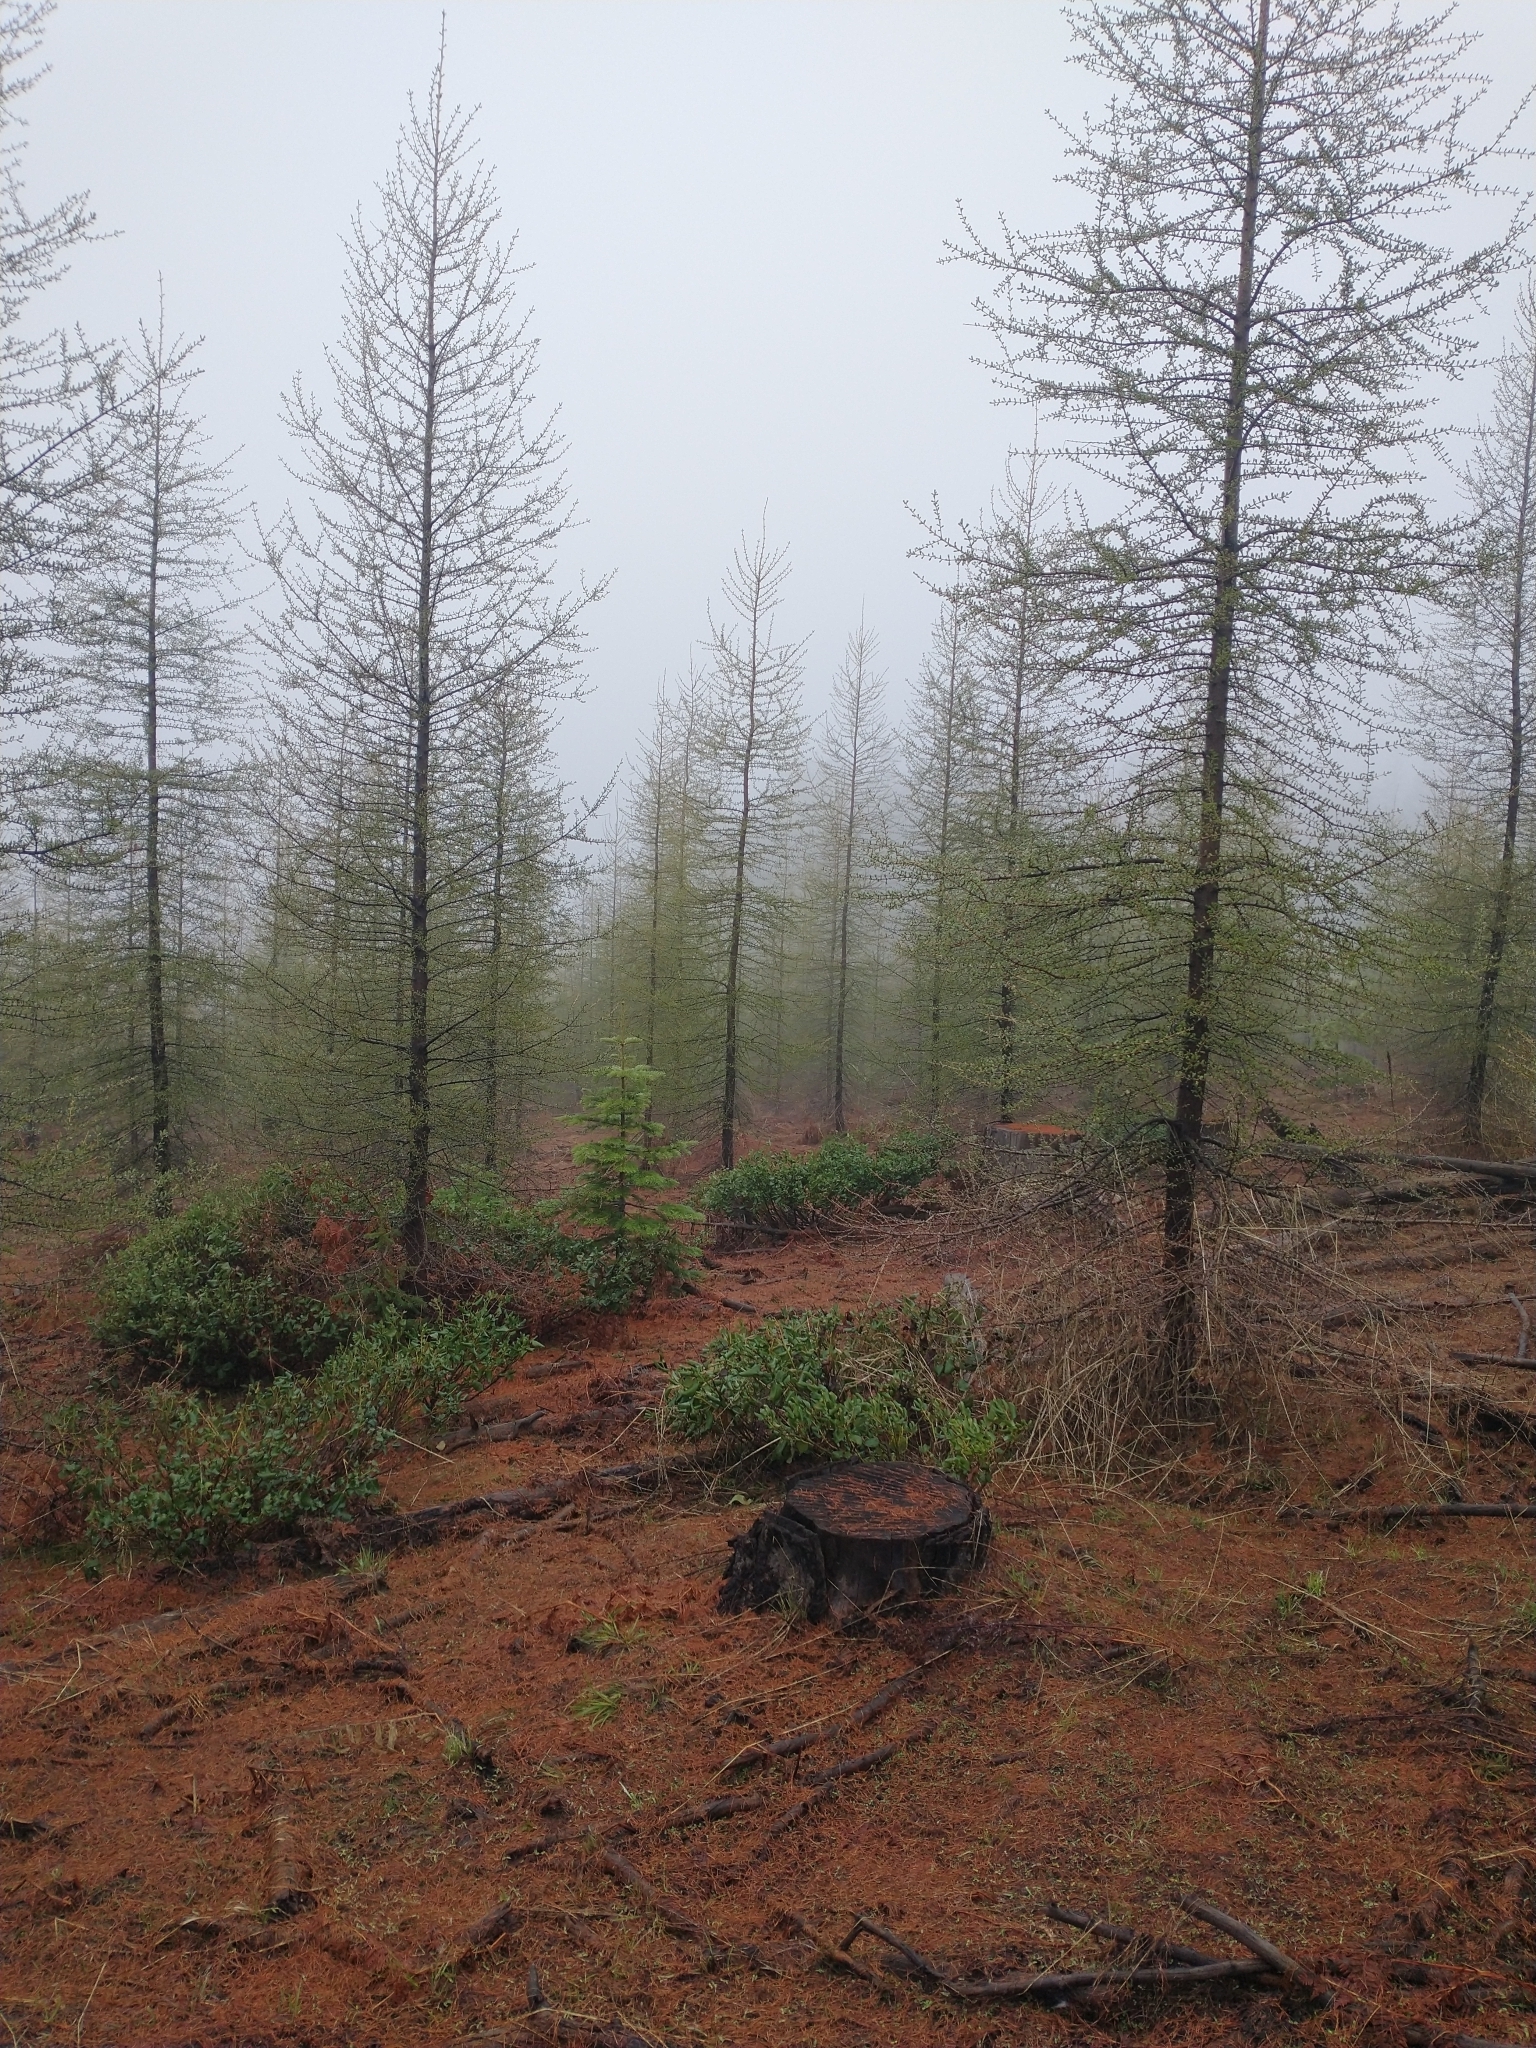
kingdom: Plantae
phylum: Tracheophyta
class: Magnoliopsida
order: Rosales
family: Rhamnaceae
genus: Ceanothus
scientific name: Ceanothus velutinus
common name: Snowbrush
